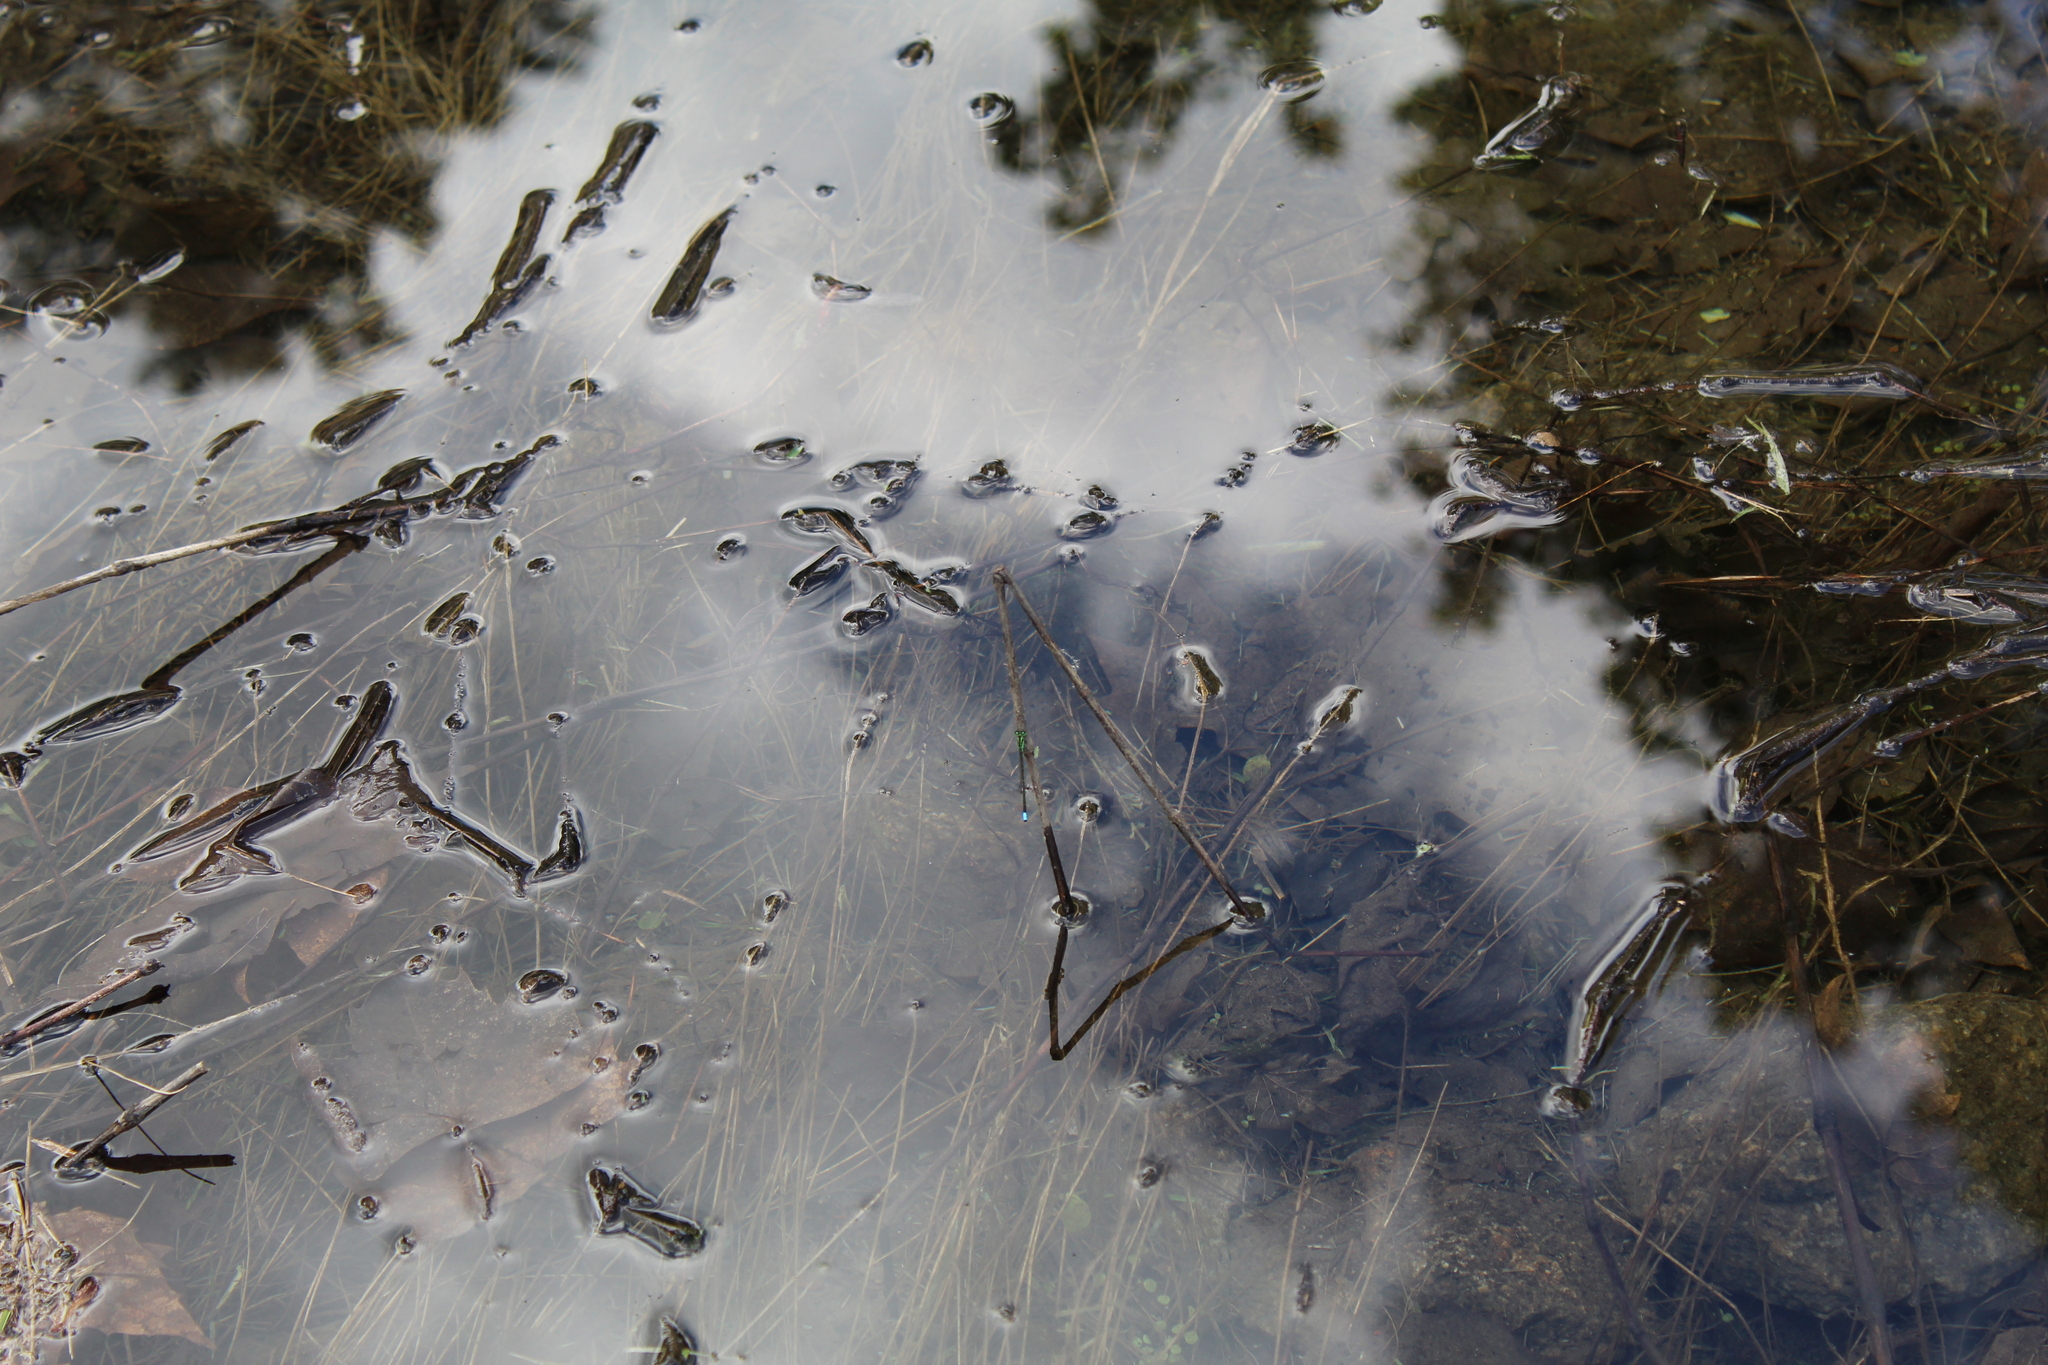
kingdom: Animalia
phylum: Arthropoda
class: Insecta
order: Odonata
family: Coenagrionidae
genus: Ischnura
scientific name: Ischnura verticalis
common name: Eastern forktail
